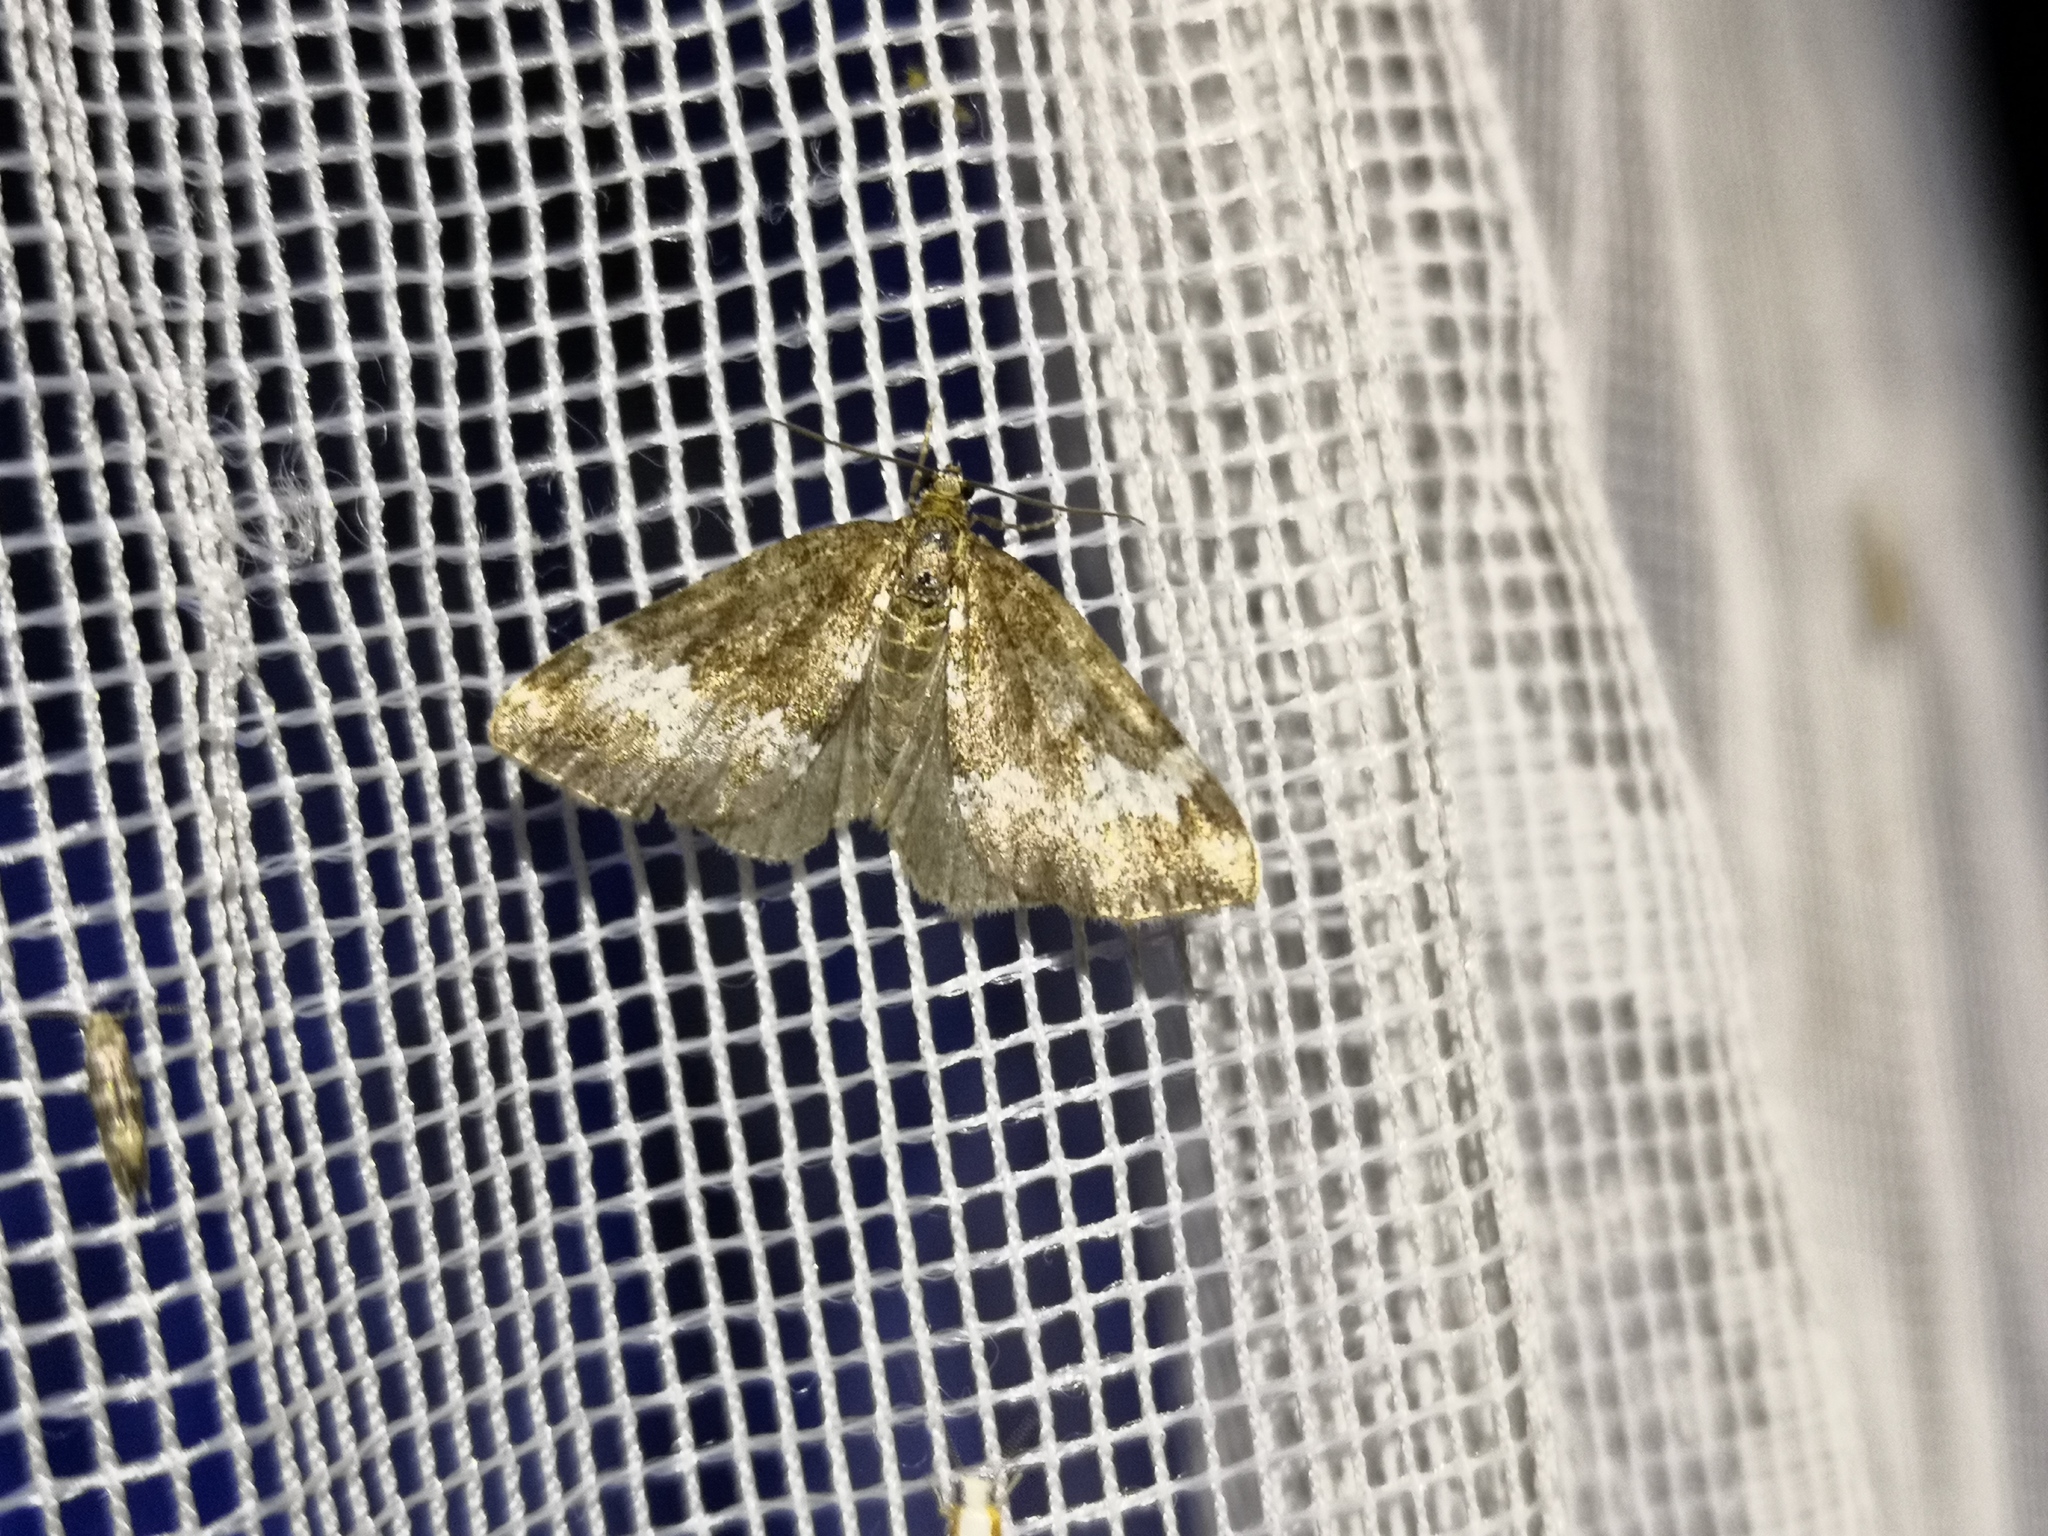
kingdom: Animalia
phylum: Arthropoda
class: Insecta
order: Lepidoptera
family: Geometridae
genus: Perizoma
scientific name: Perizoma alchemillata
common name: Small rivulet
